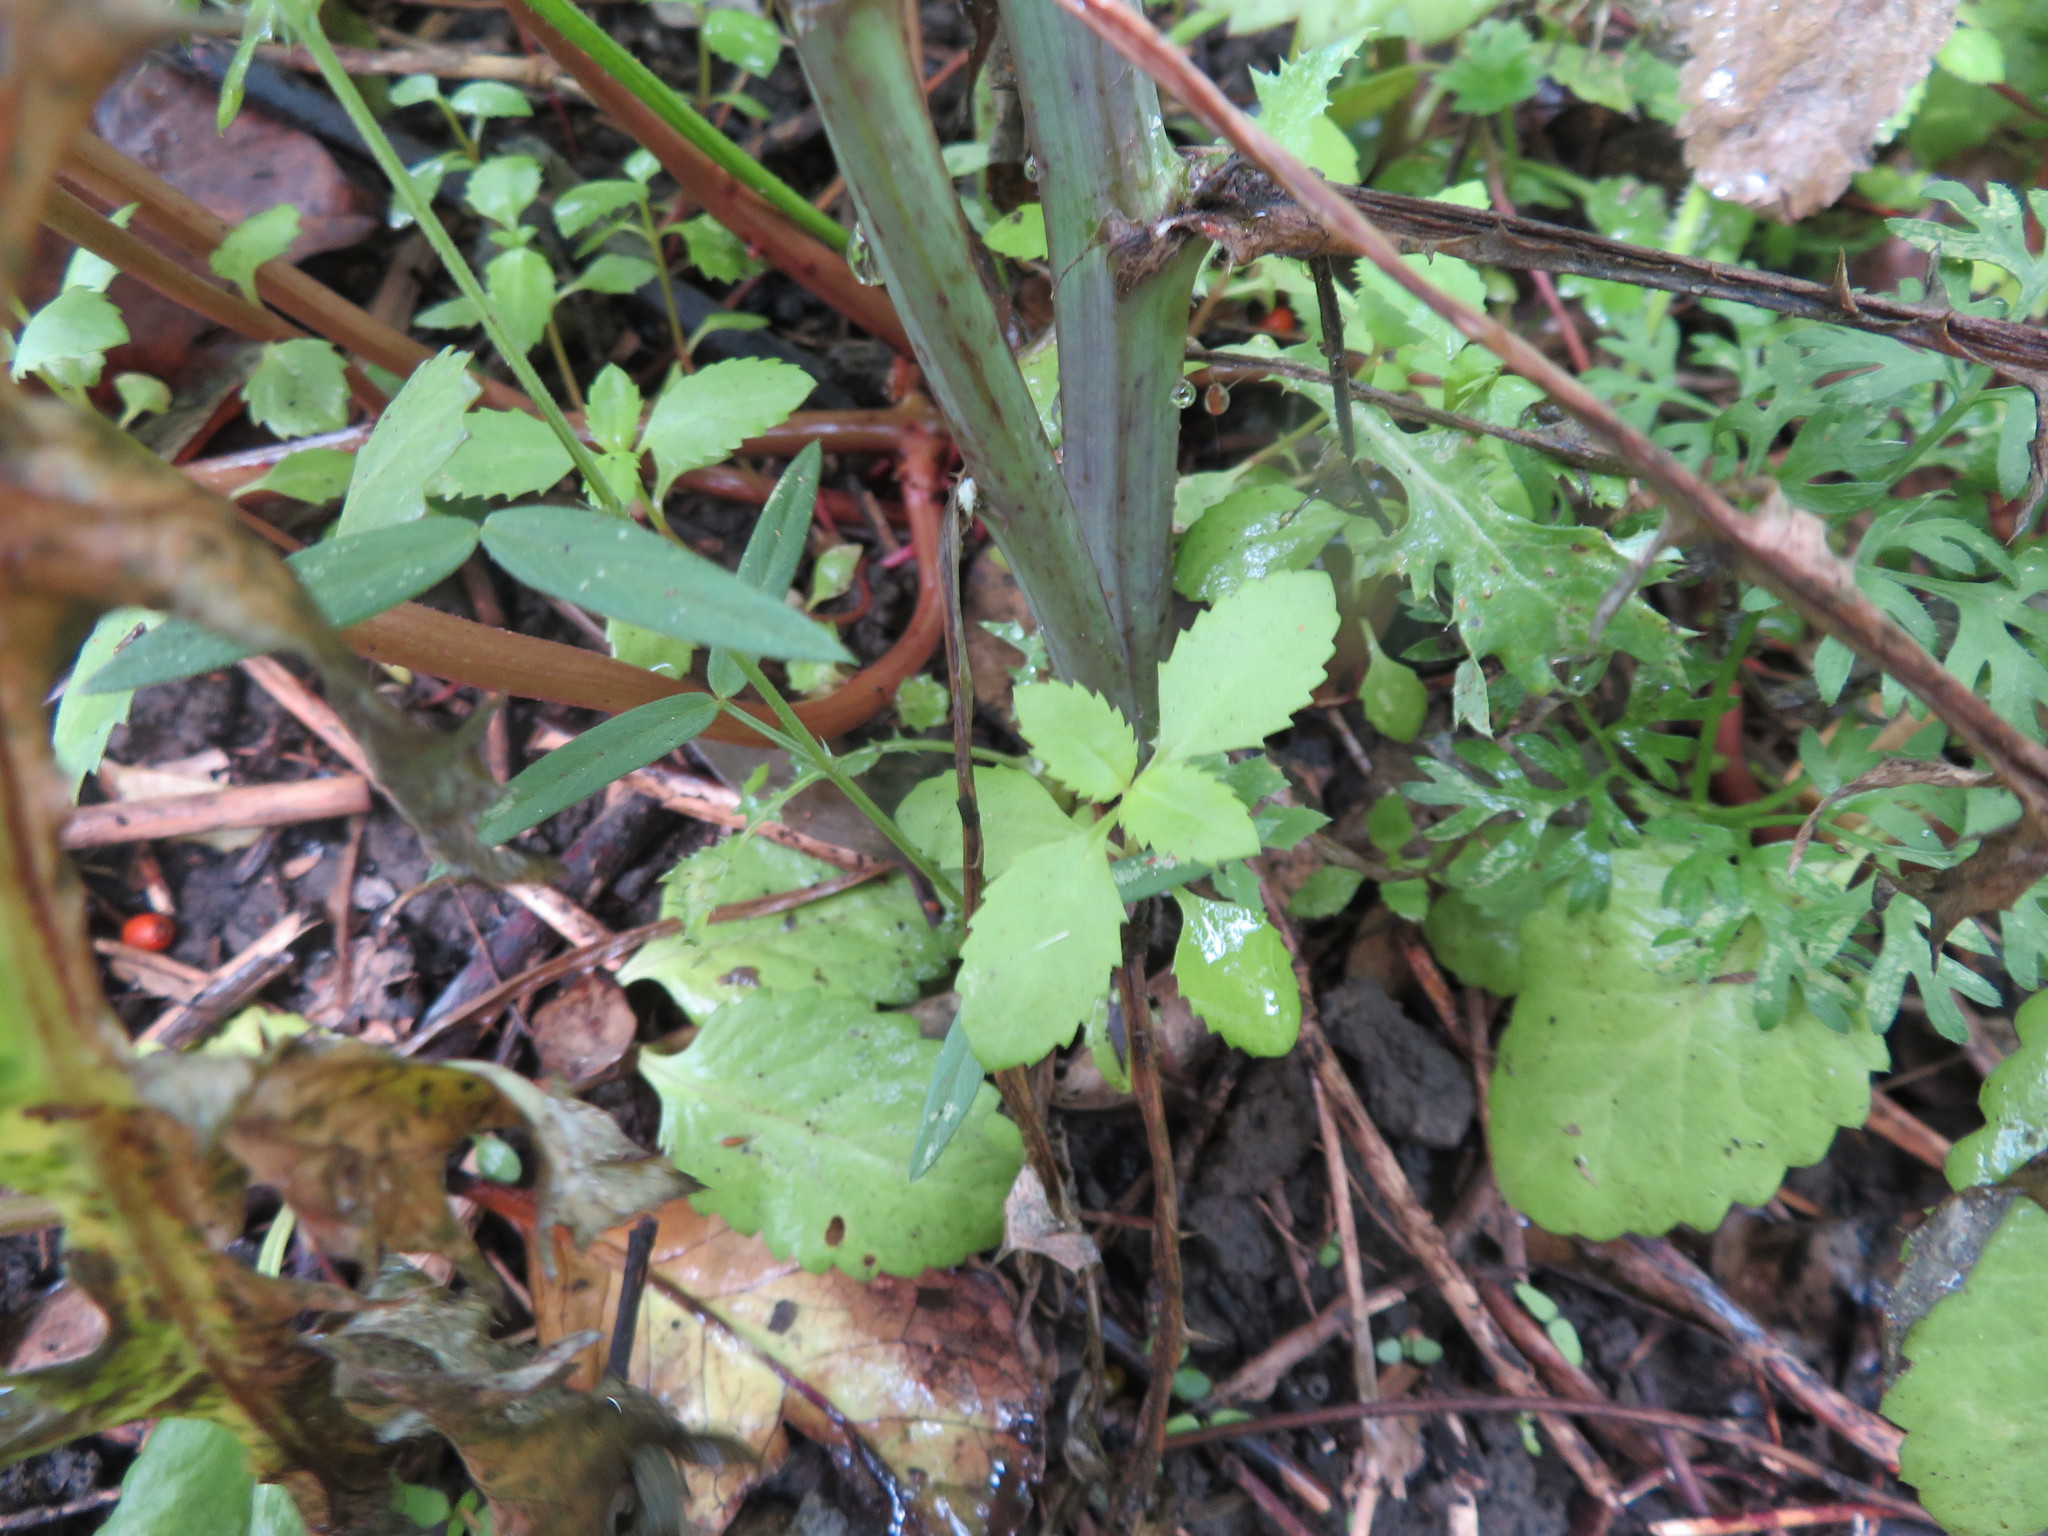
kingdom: Plantae
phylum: Tracheophyta
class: Magnoliopsida
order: Saxifragales
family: Haloragaceae
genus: Haloragis
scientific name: Haloragis erecta
